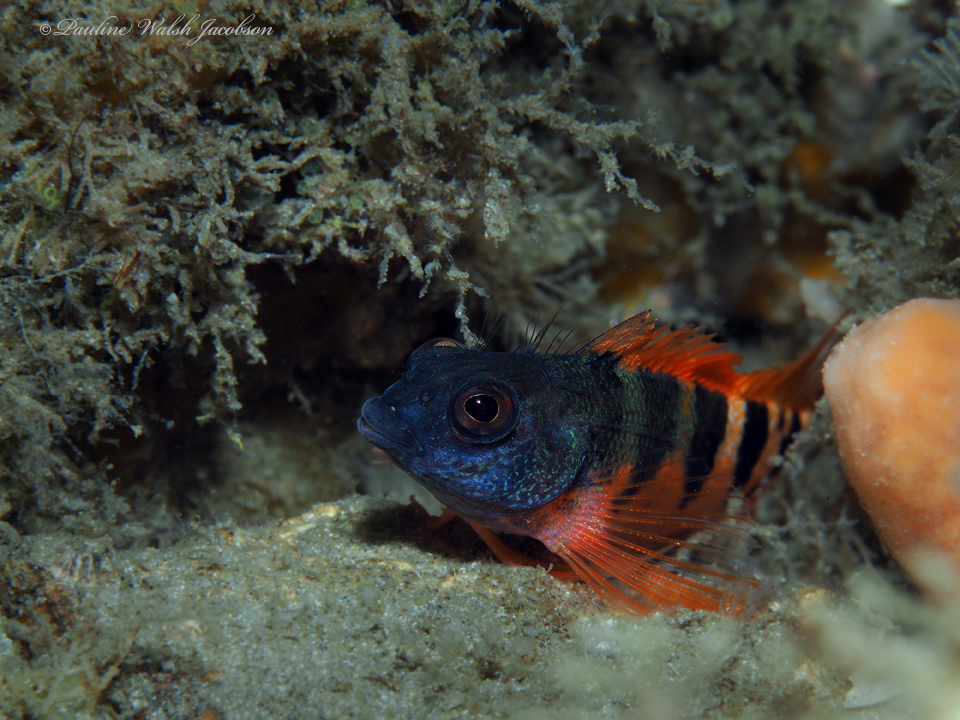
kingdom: Animalia
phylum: Chordata
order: Perciformes
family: Labrisomidae
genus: Malacoctenus
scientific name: Malacoctenus triangulatus
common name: Saddled blenny
